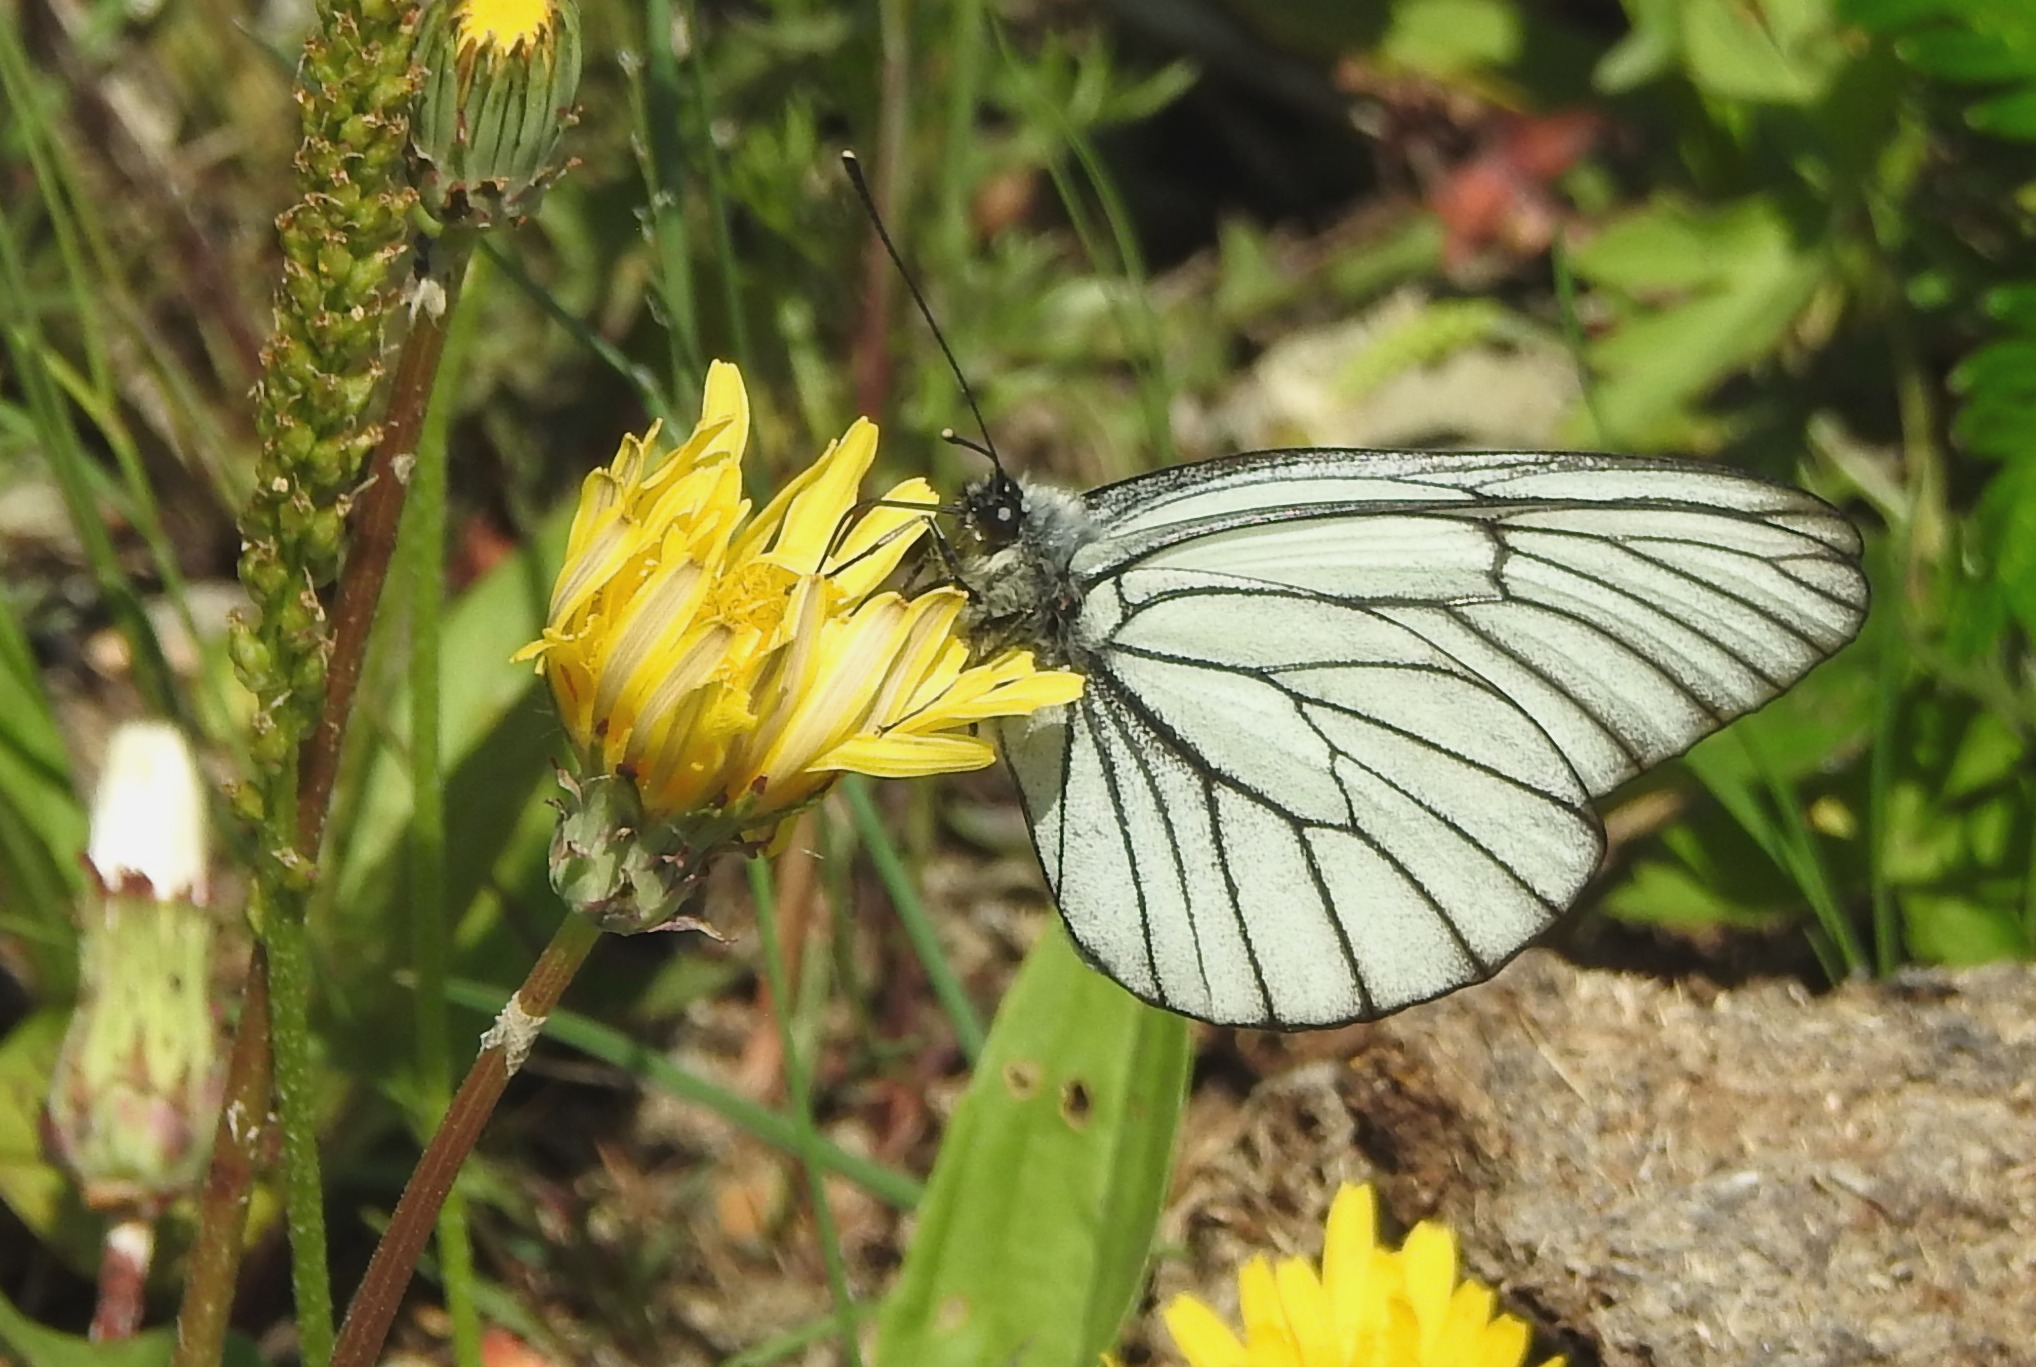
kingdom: Animalia
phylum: Arthropoda
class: Insecta
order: Lepidoptera
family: Pieridae
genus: Aporia
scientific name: Aporia crataegi
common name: Black-veined white
